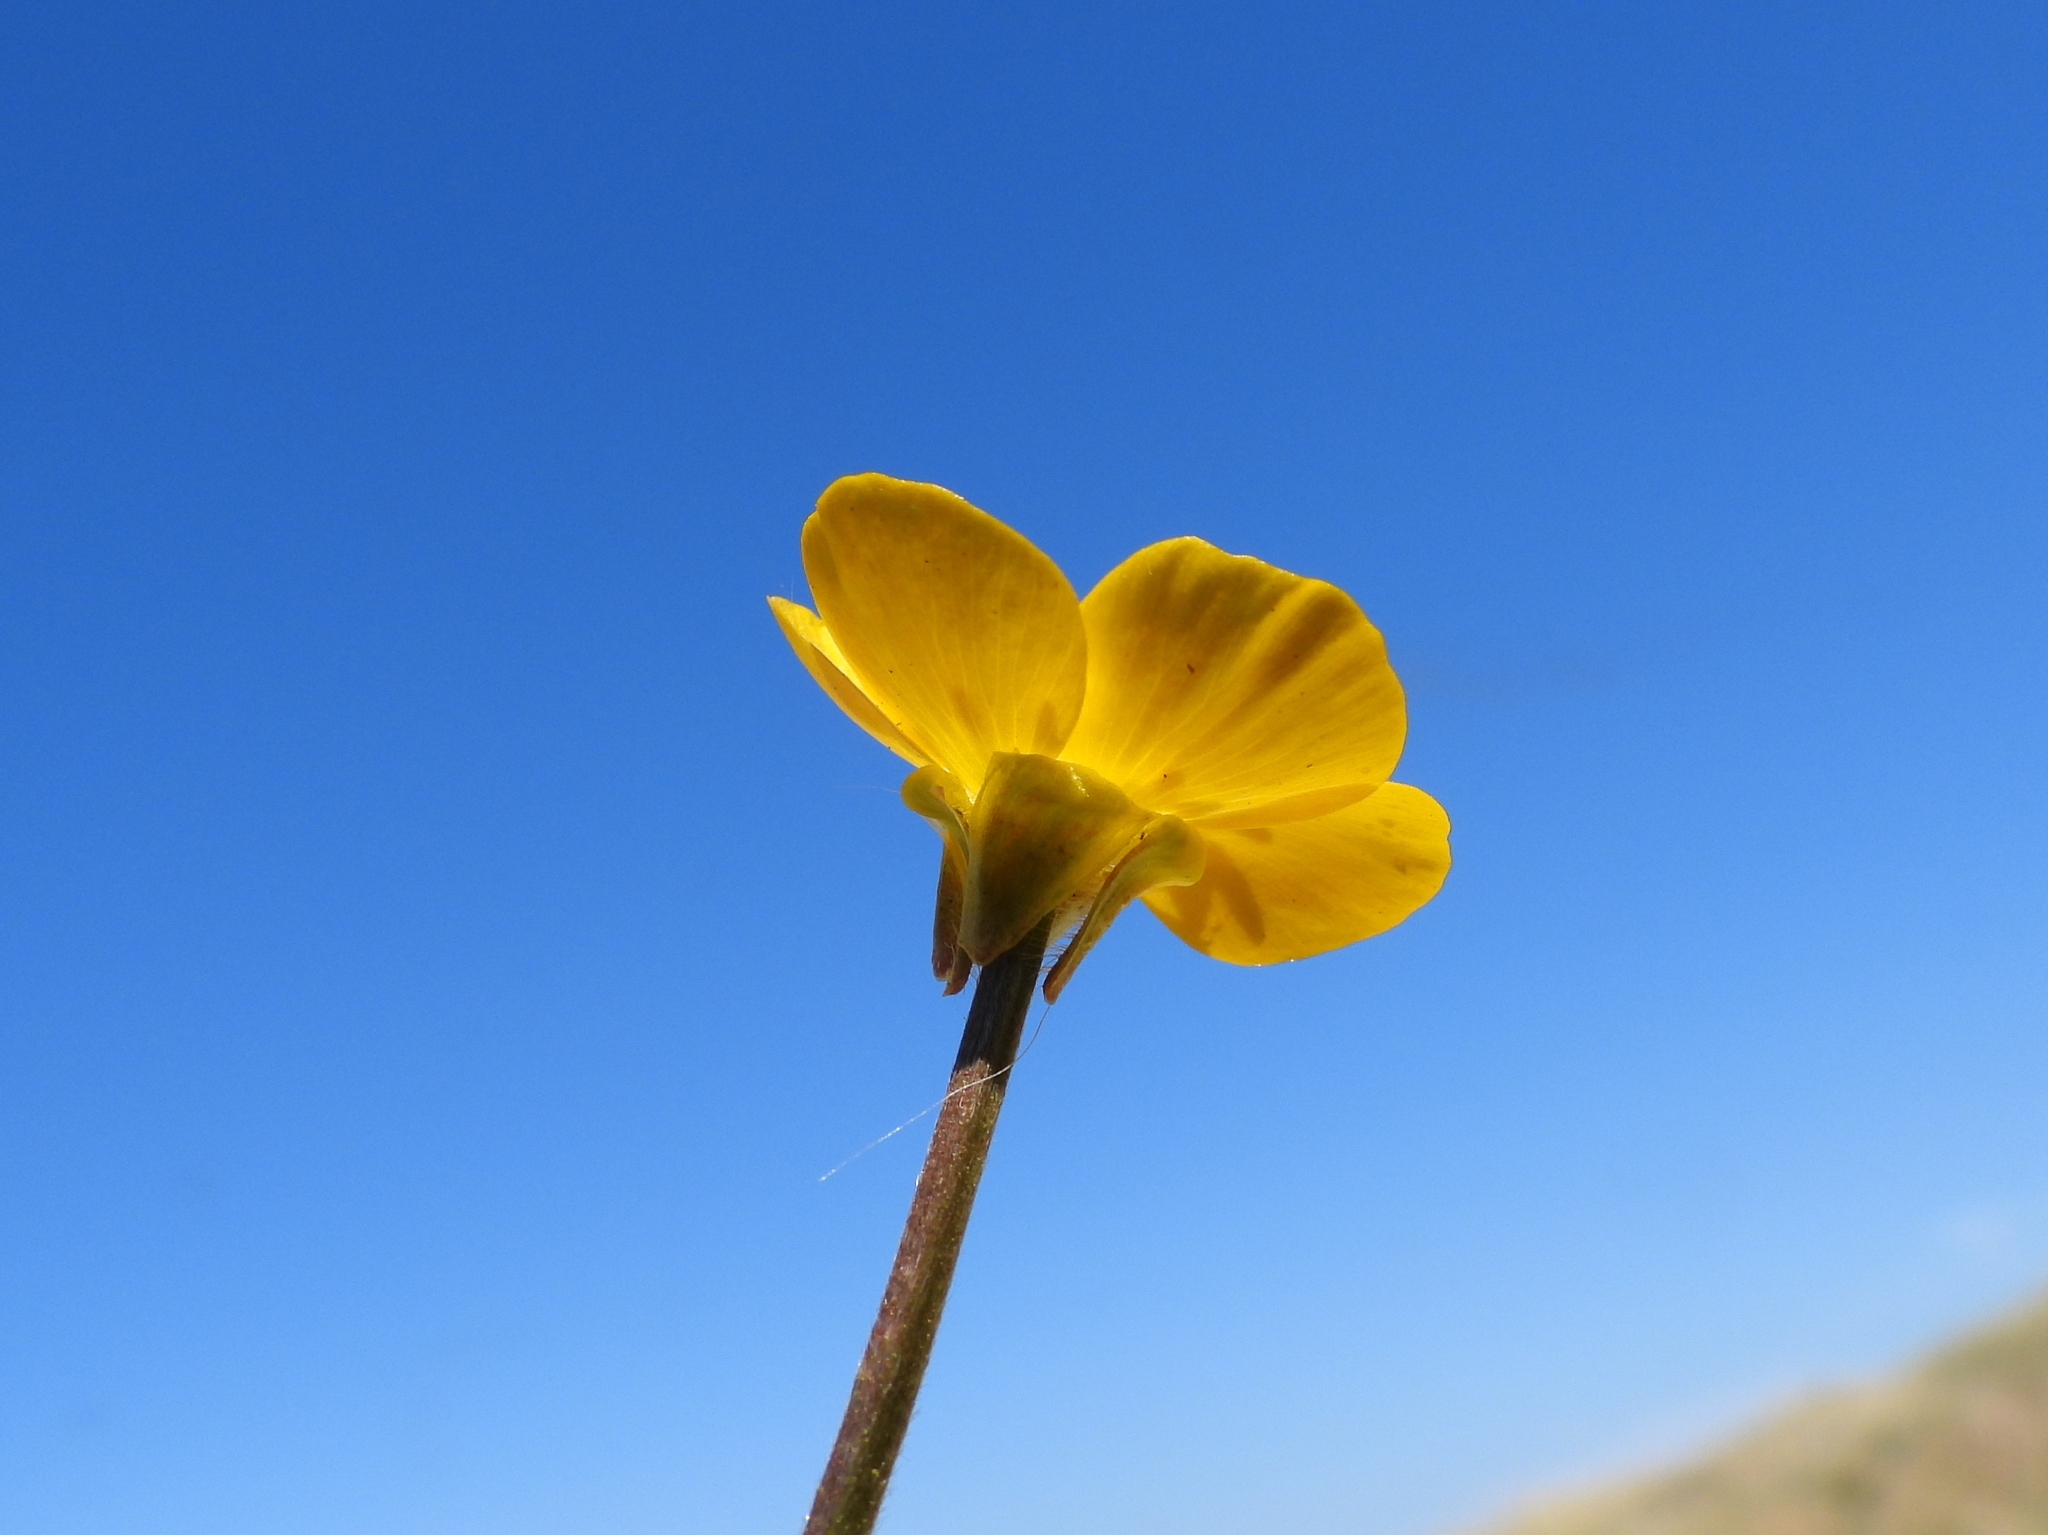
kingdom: Plantae
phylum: Tracheophyta
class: Magnoliopsida
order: Ranunculales
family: Ranunculaceae
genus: Ranunculus
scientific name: Ranunculus bulbosus
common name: Bulbous buttercup
